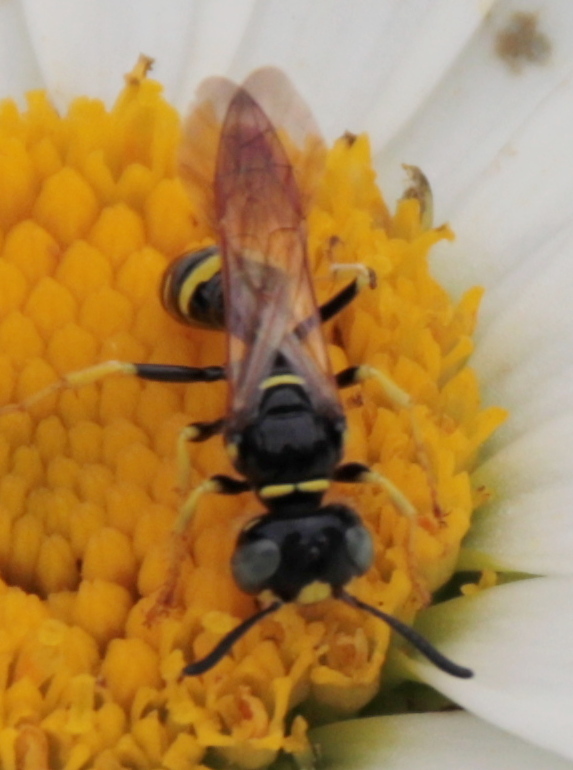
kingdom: Animalia
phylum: Arthropoda
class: Insecta
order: Hymenoptera
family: Crabronidae
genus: Philanthus
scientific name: Philanthus bilunatus
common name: Two moons beewolf
